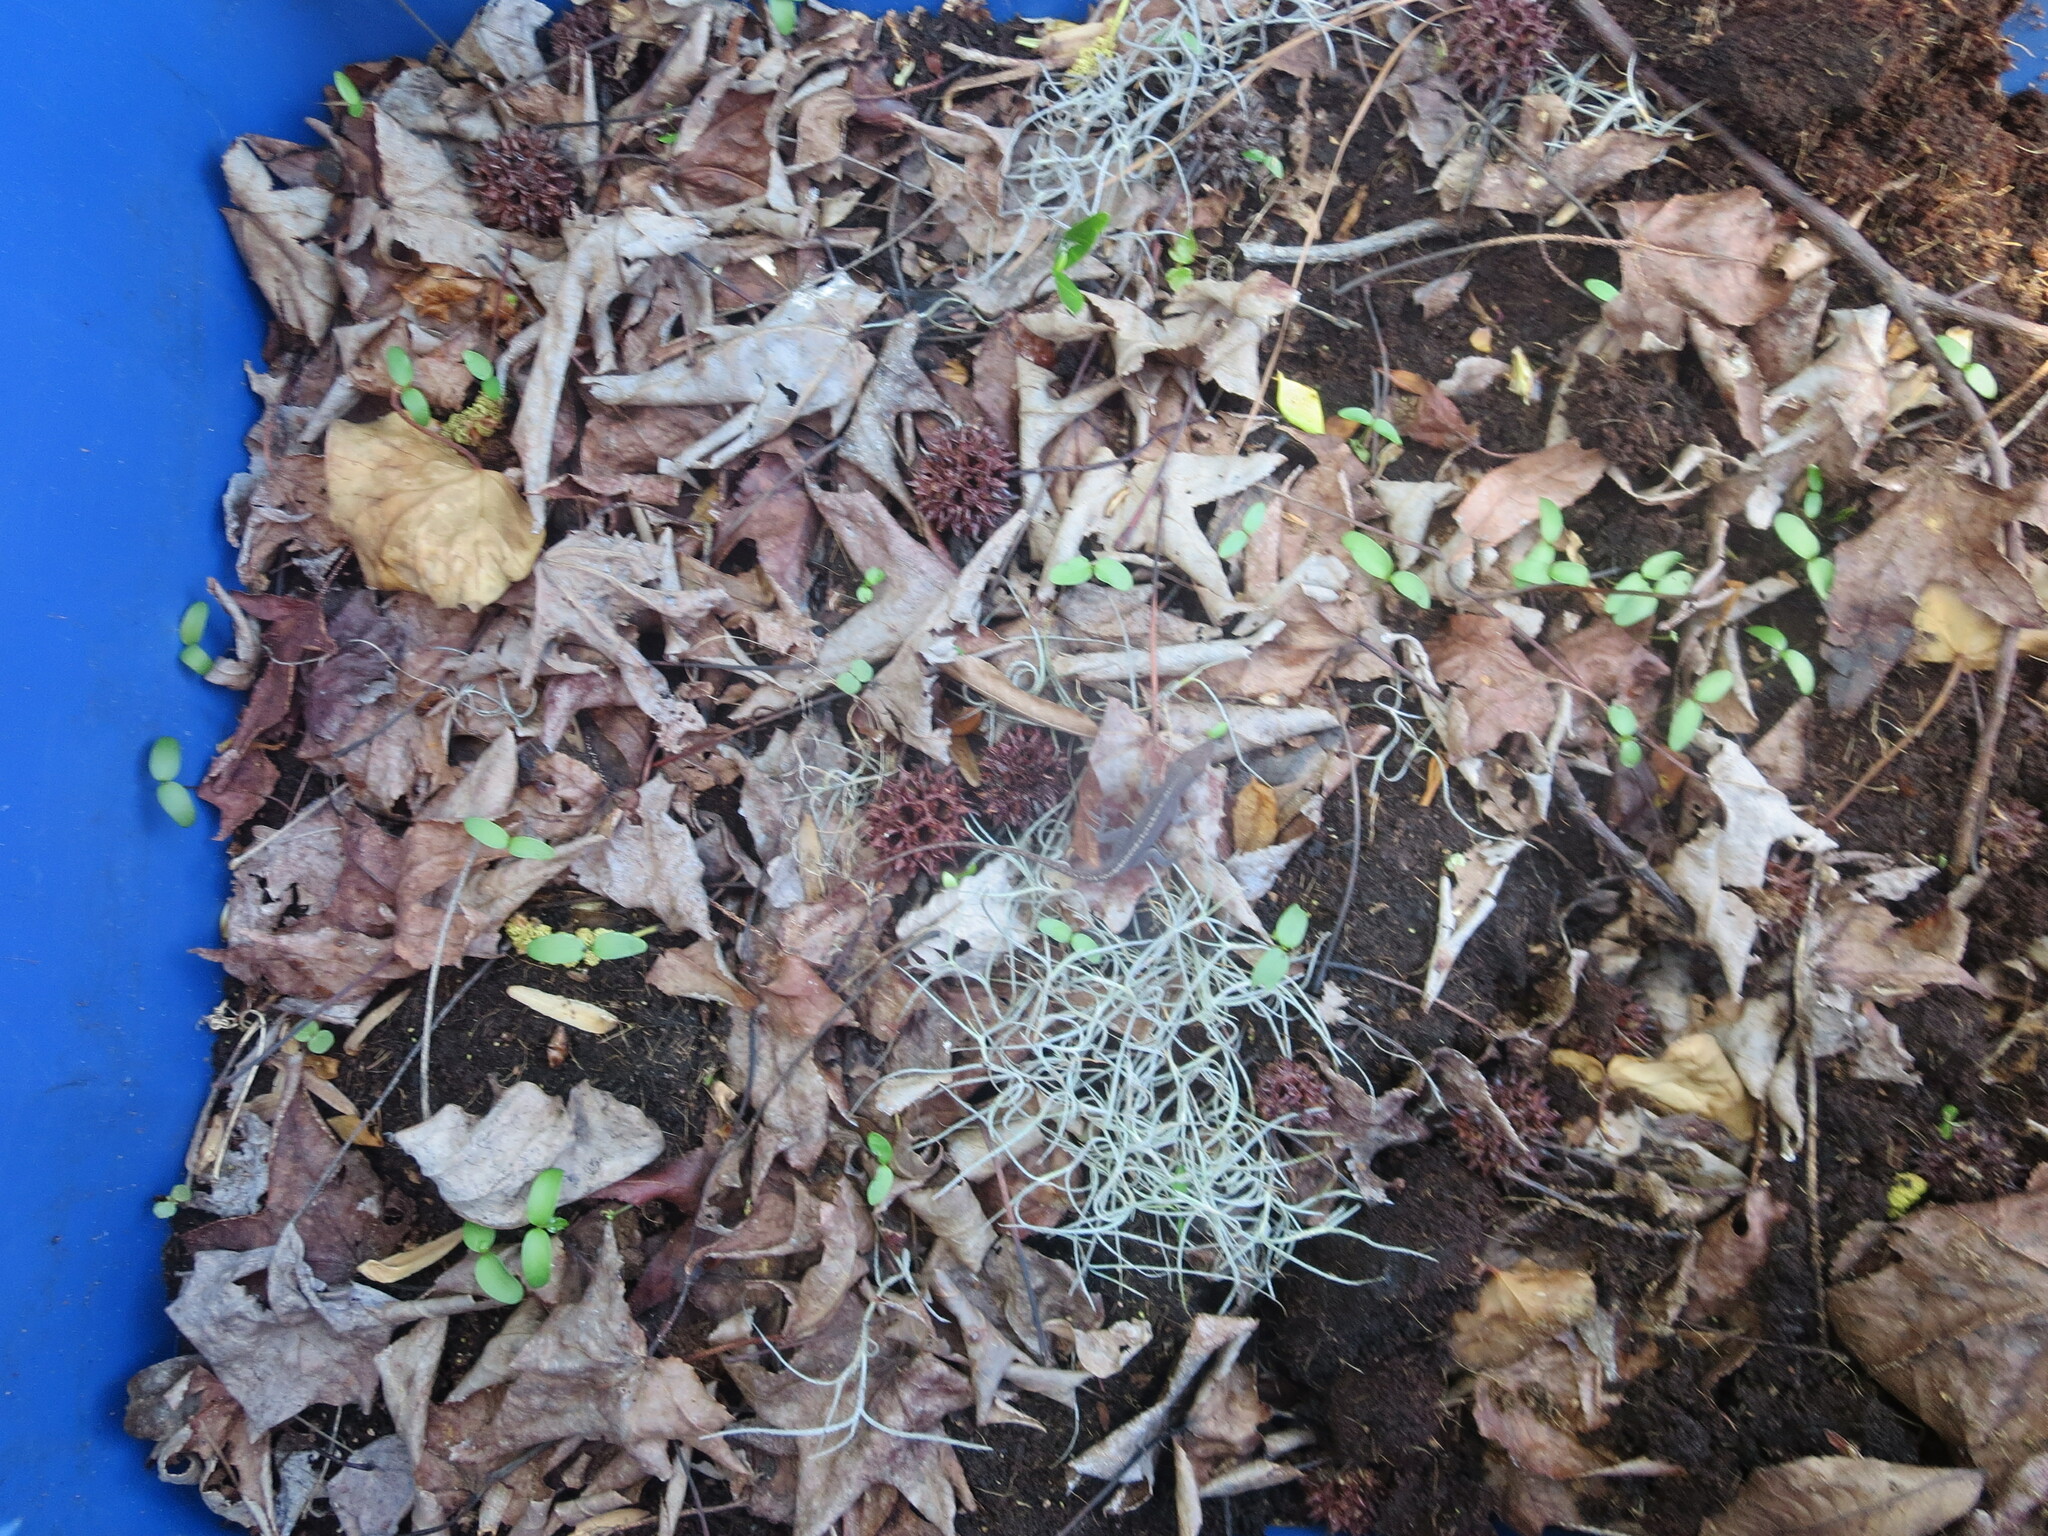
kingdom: Animalia
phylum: Chordata
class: Squamata
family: Dactyloidae
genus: Anolis
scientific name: Anolis carolinensis
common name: Green anole
